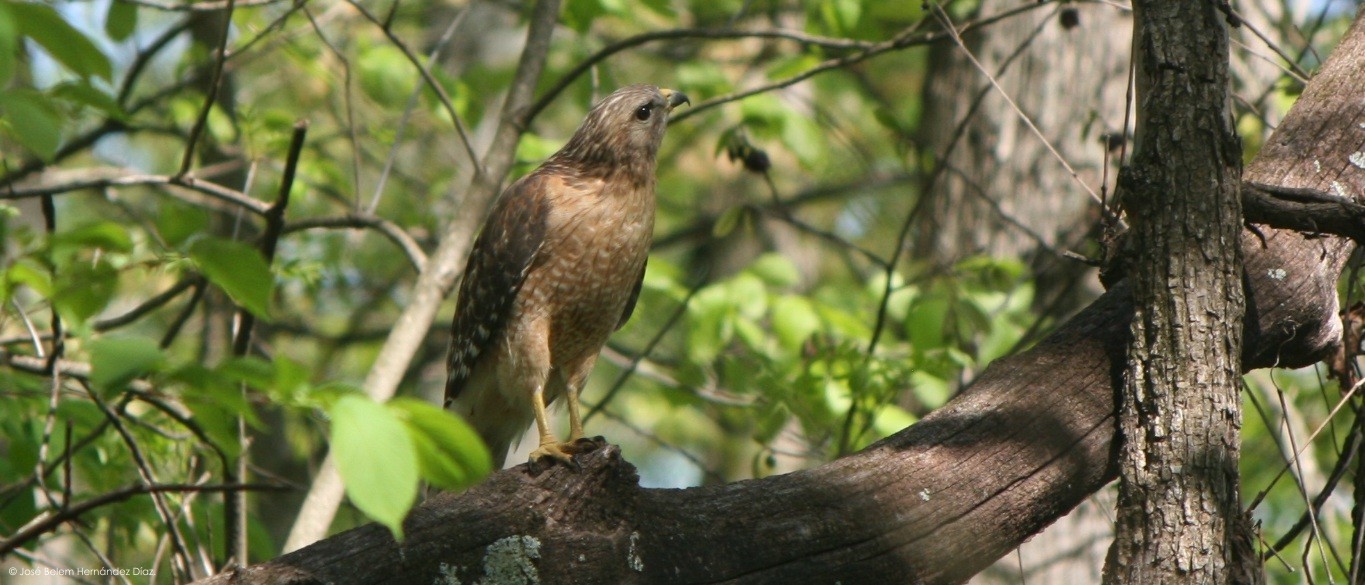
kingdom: Animalia
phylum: Chordata
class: Aves
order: Accipitriformes
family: Accipitridae
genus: Buteo
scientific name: Buteo lineatus
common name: Red-shouldered hawk
